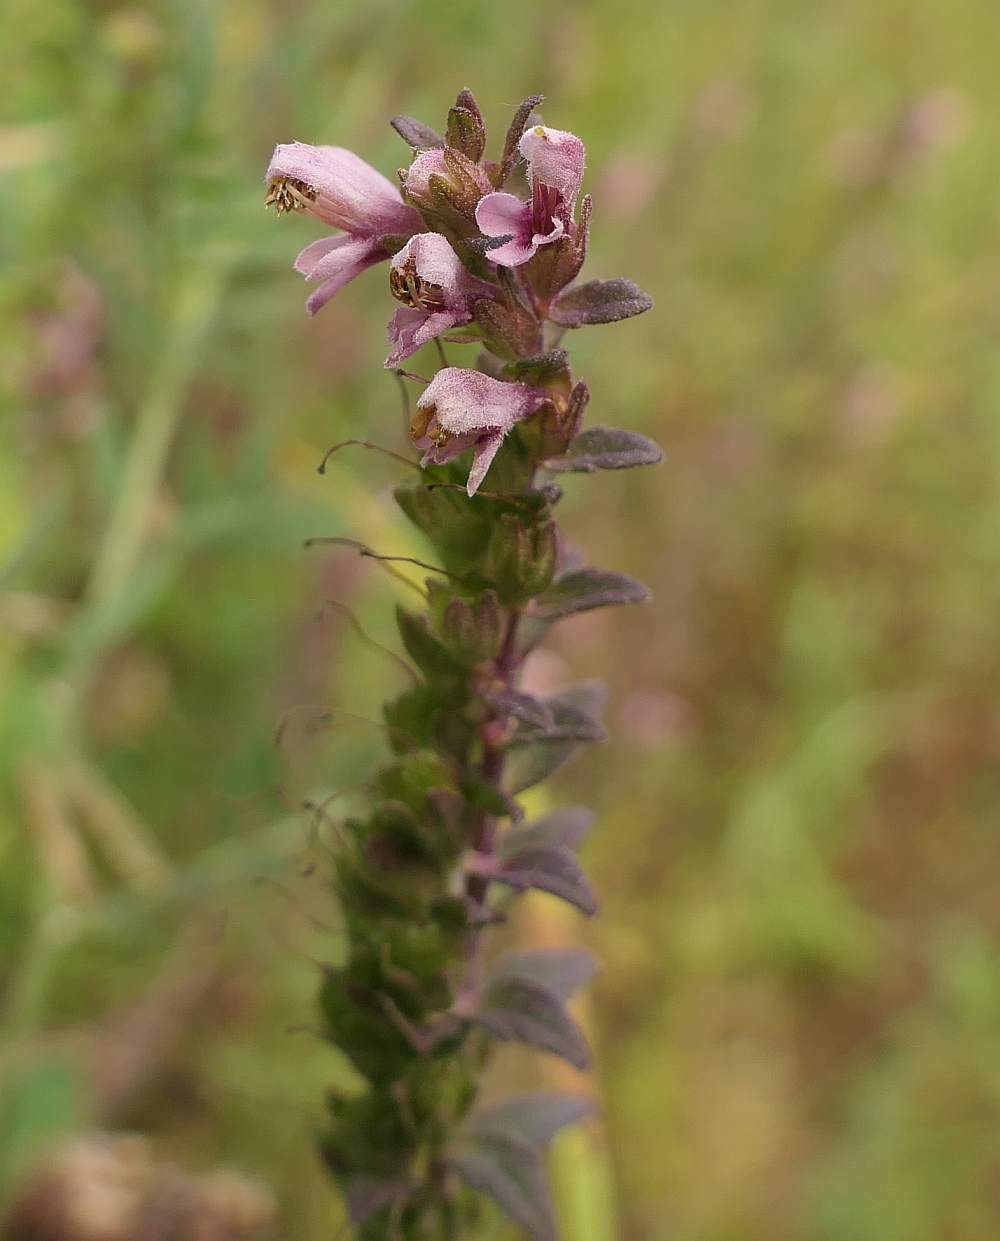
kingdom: Plantae
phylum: Tracheophyta
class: Magnoliopsida
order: Lamiales
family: Orobanchaceae
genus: Odontites
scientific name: Odontites vulgaris
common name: Broomrape
